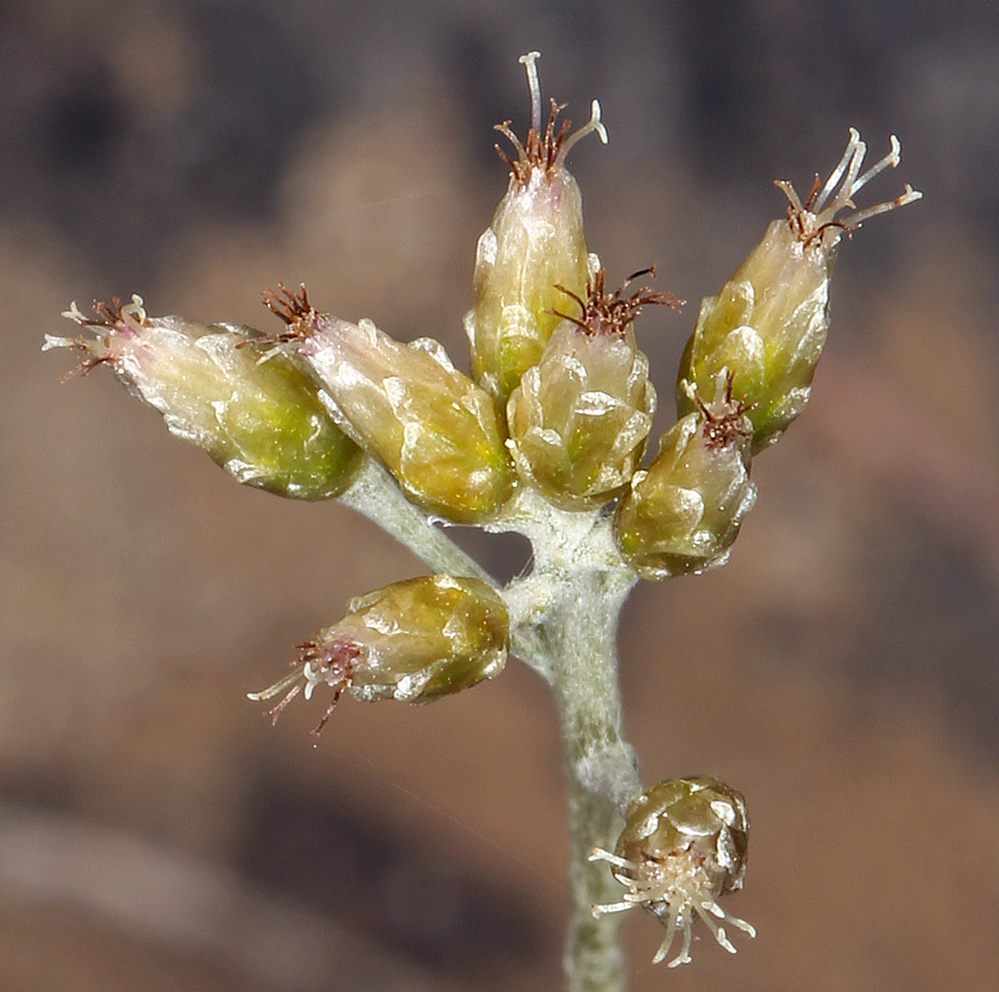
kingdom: Plantae
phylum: Tracheophyta
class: Magnoliopsida
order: Asterales
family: Asteraceae
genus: Antennaria
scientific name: Antennaria stenophylla
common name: Narrow-leaved pussytoes
